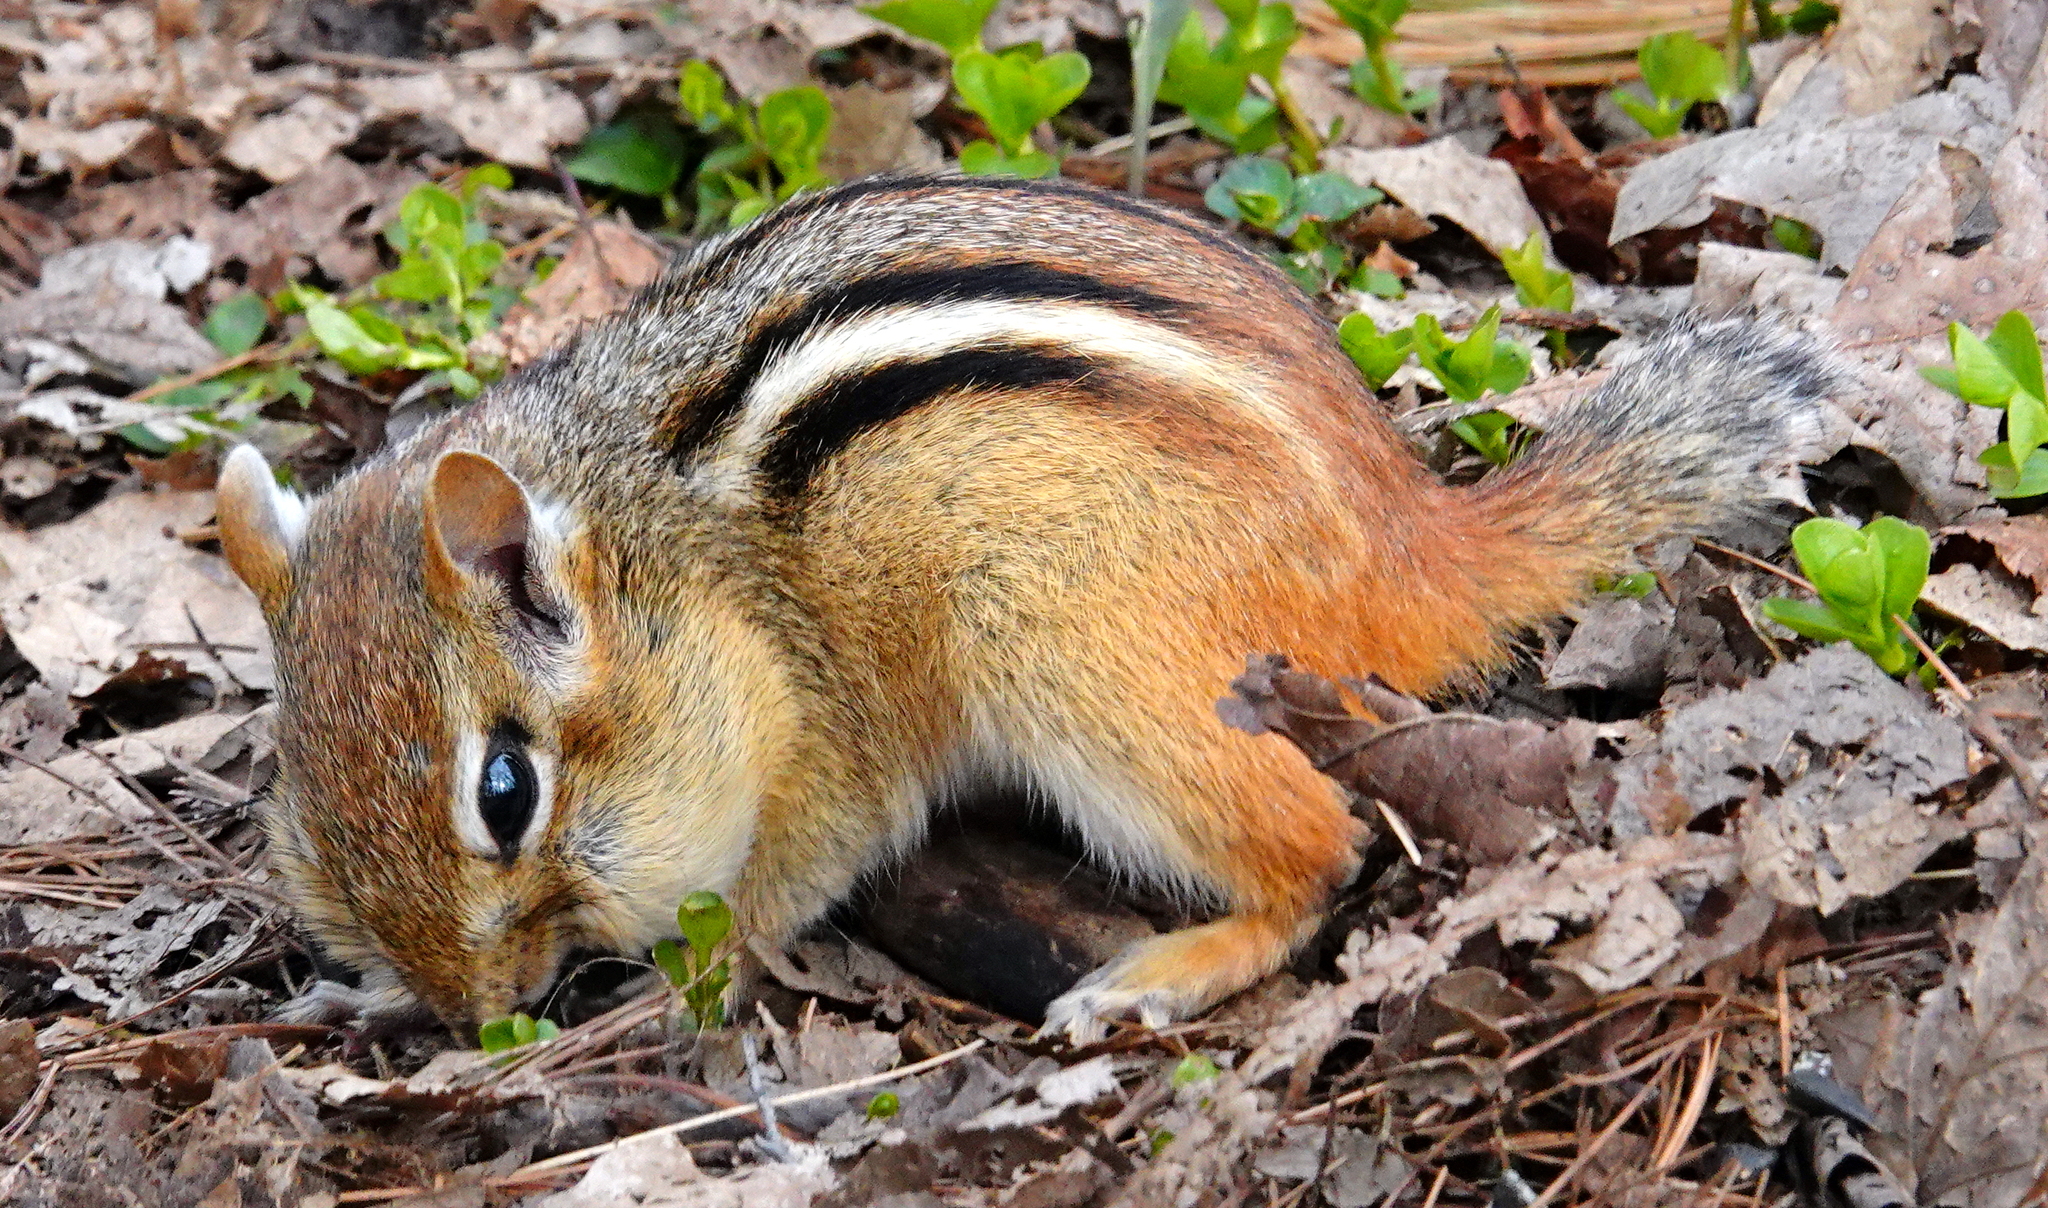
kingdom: Animalia
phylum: Chordata
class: Mammalia
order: Rodentia
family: Sciuridae
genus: Tamias
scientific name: Tamias striatus
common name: Eastern chipmunk
